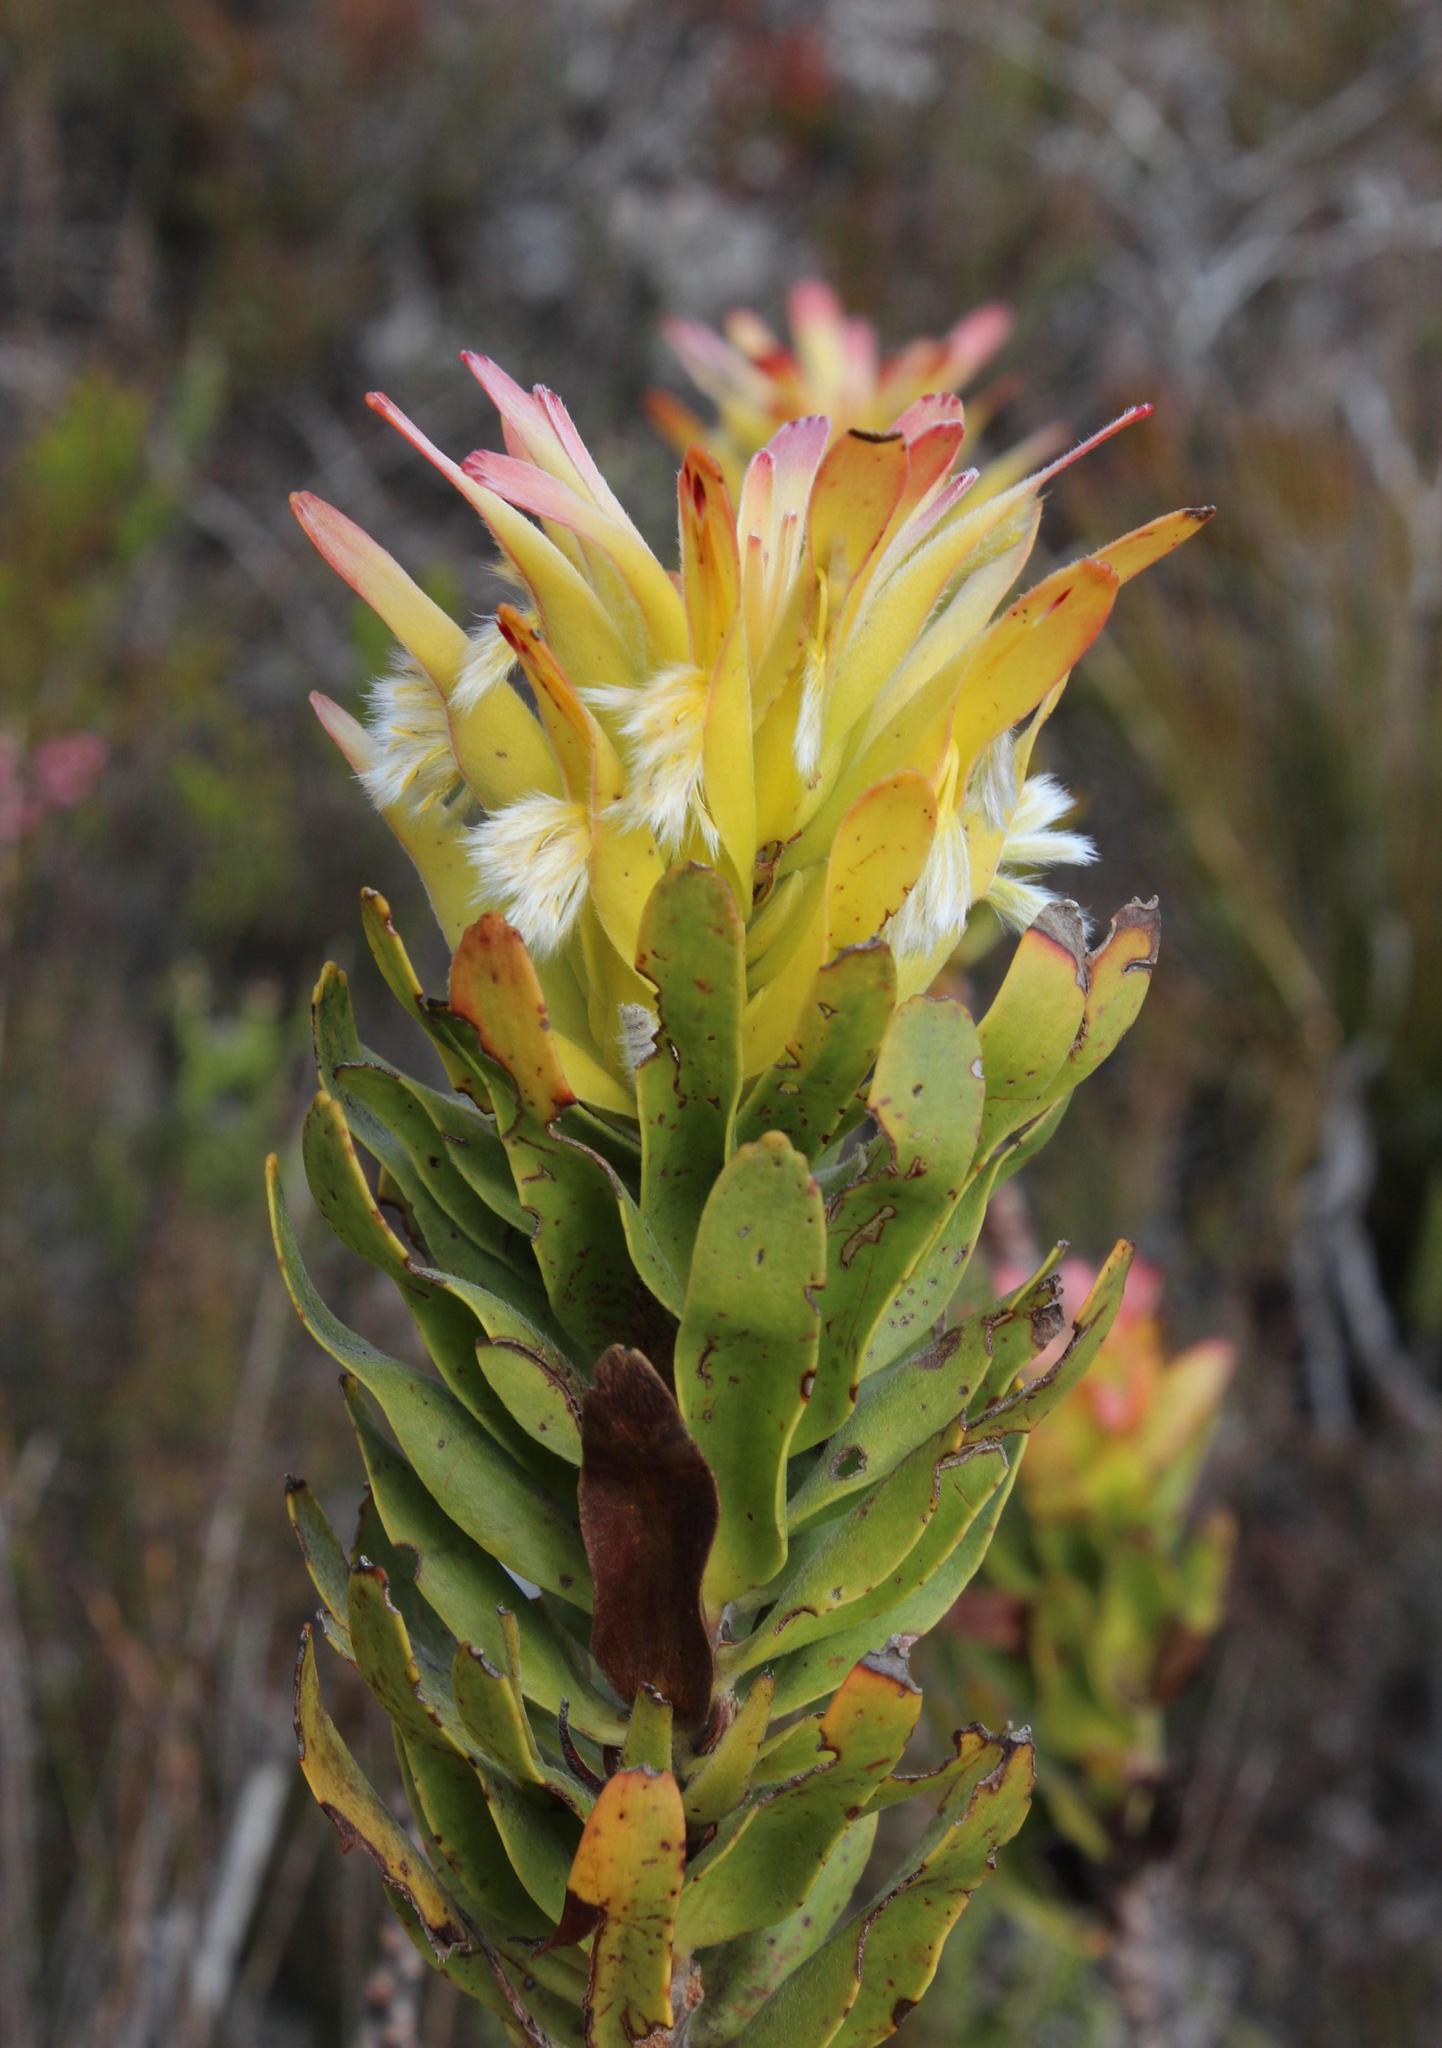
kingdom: Plantae
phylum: Tracheophyta
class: Magnoliopsida
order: Proteales
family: Proteaceae
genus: Mimetes
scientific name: Mimetes cucullatus
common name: Common pagoda
